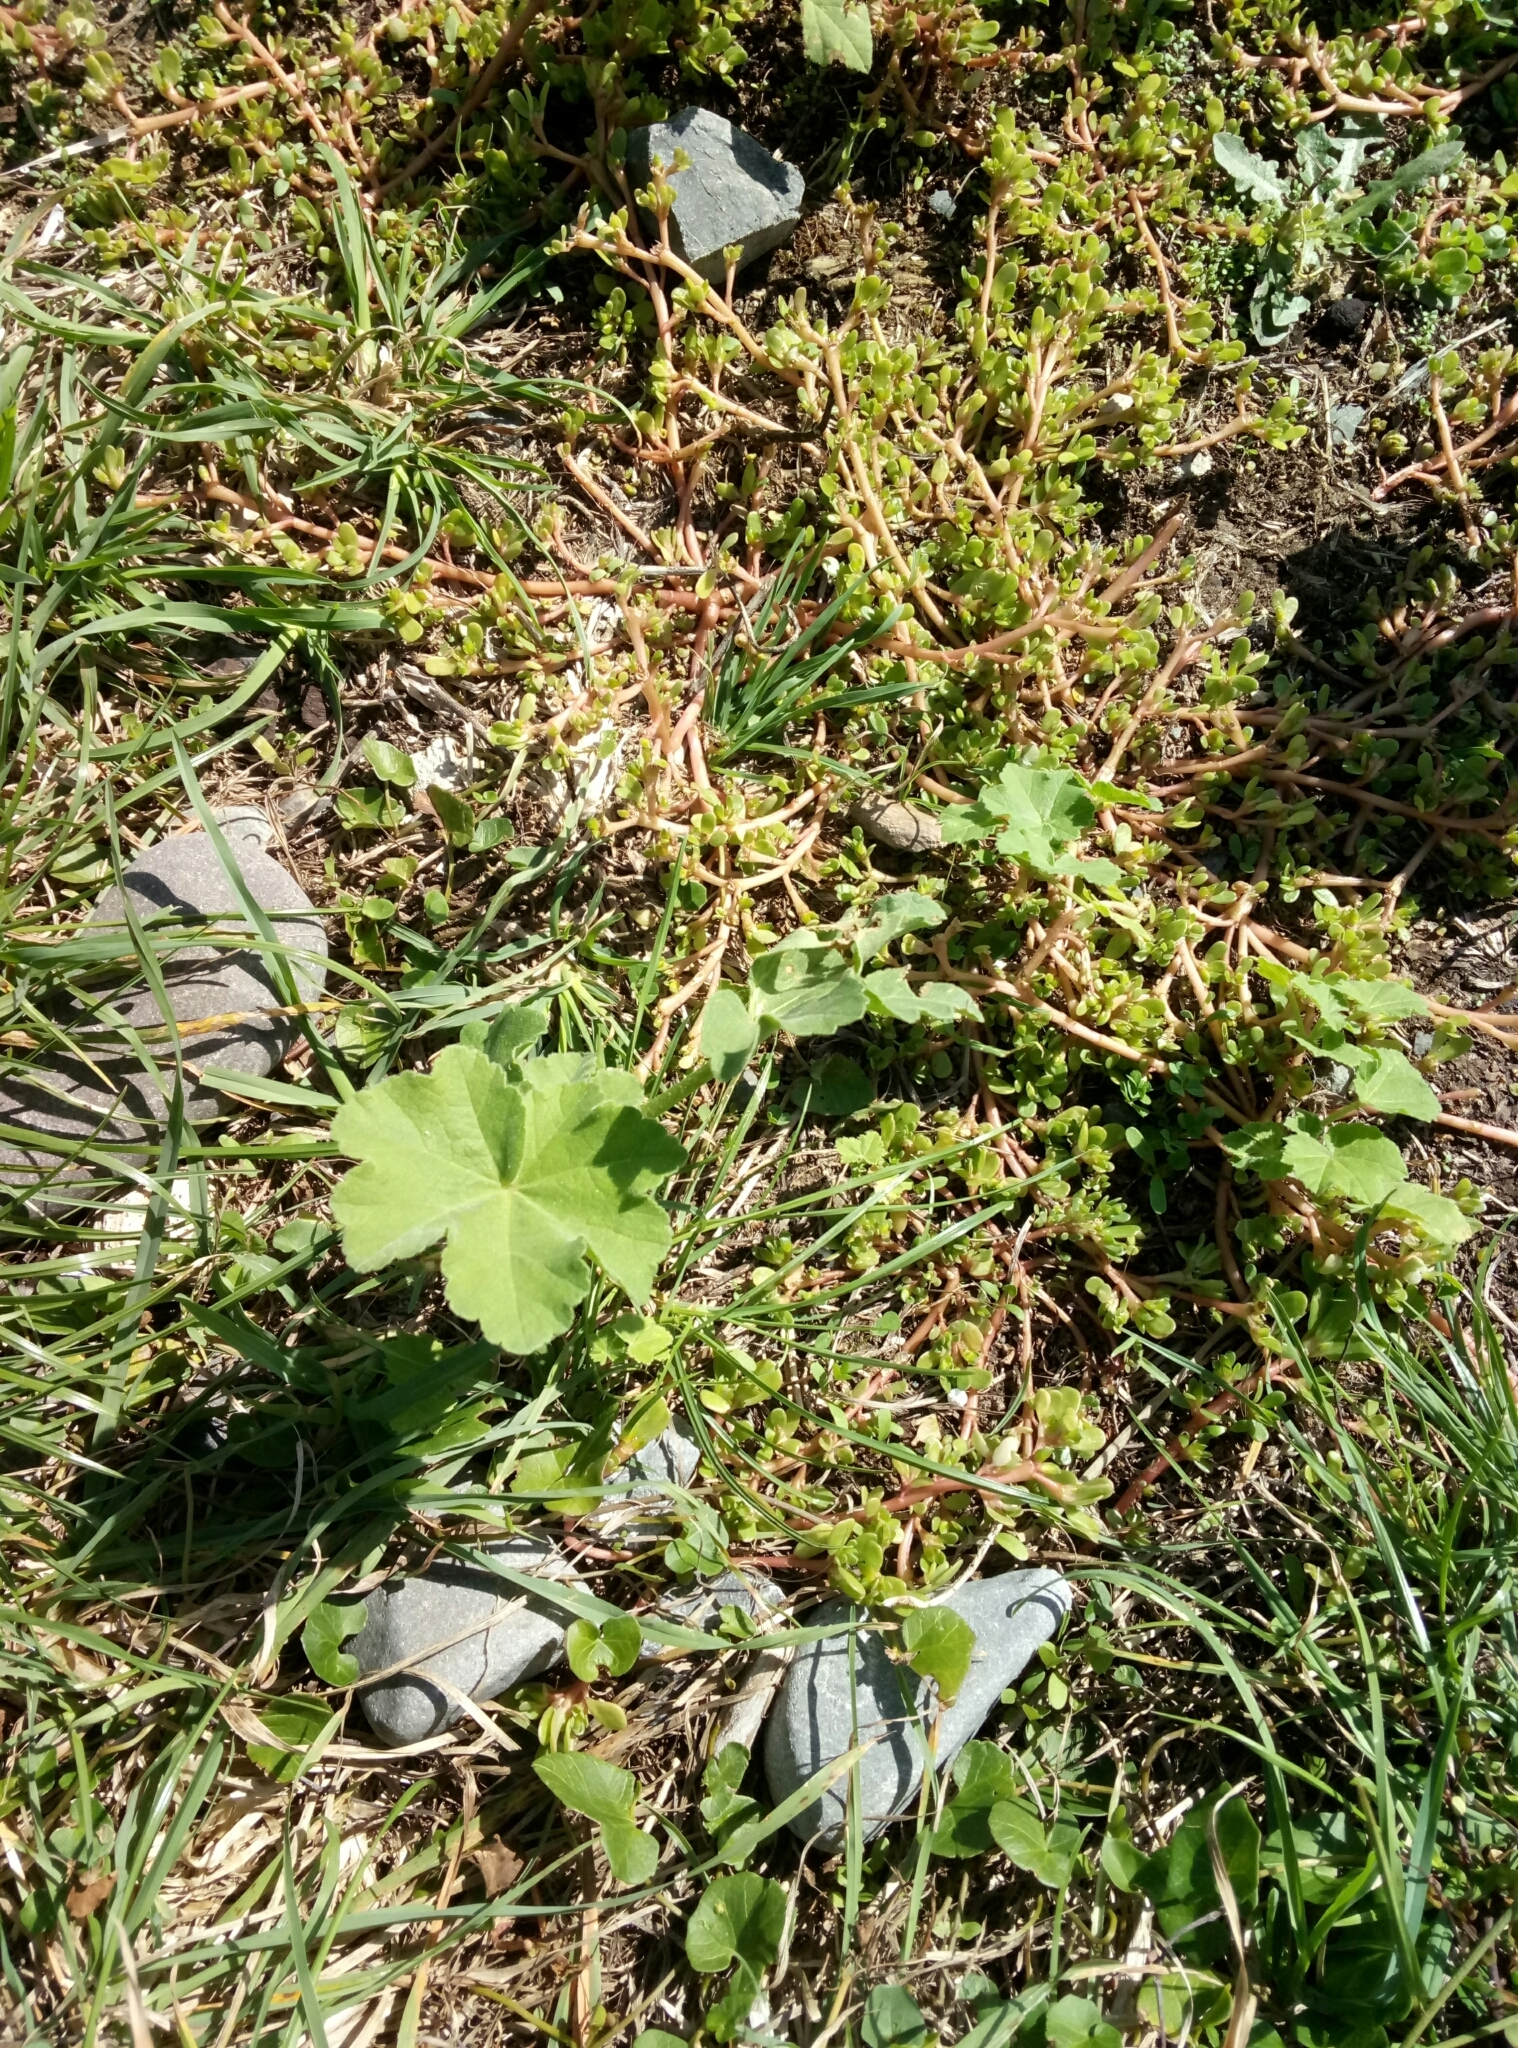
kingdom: Plantae
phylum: Tracheophyta
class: Magnoliopsida
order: Malvales
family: Malvaceae
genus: Malva
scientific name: Malva arborea
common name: Tree mallow
